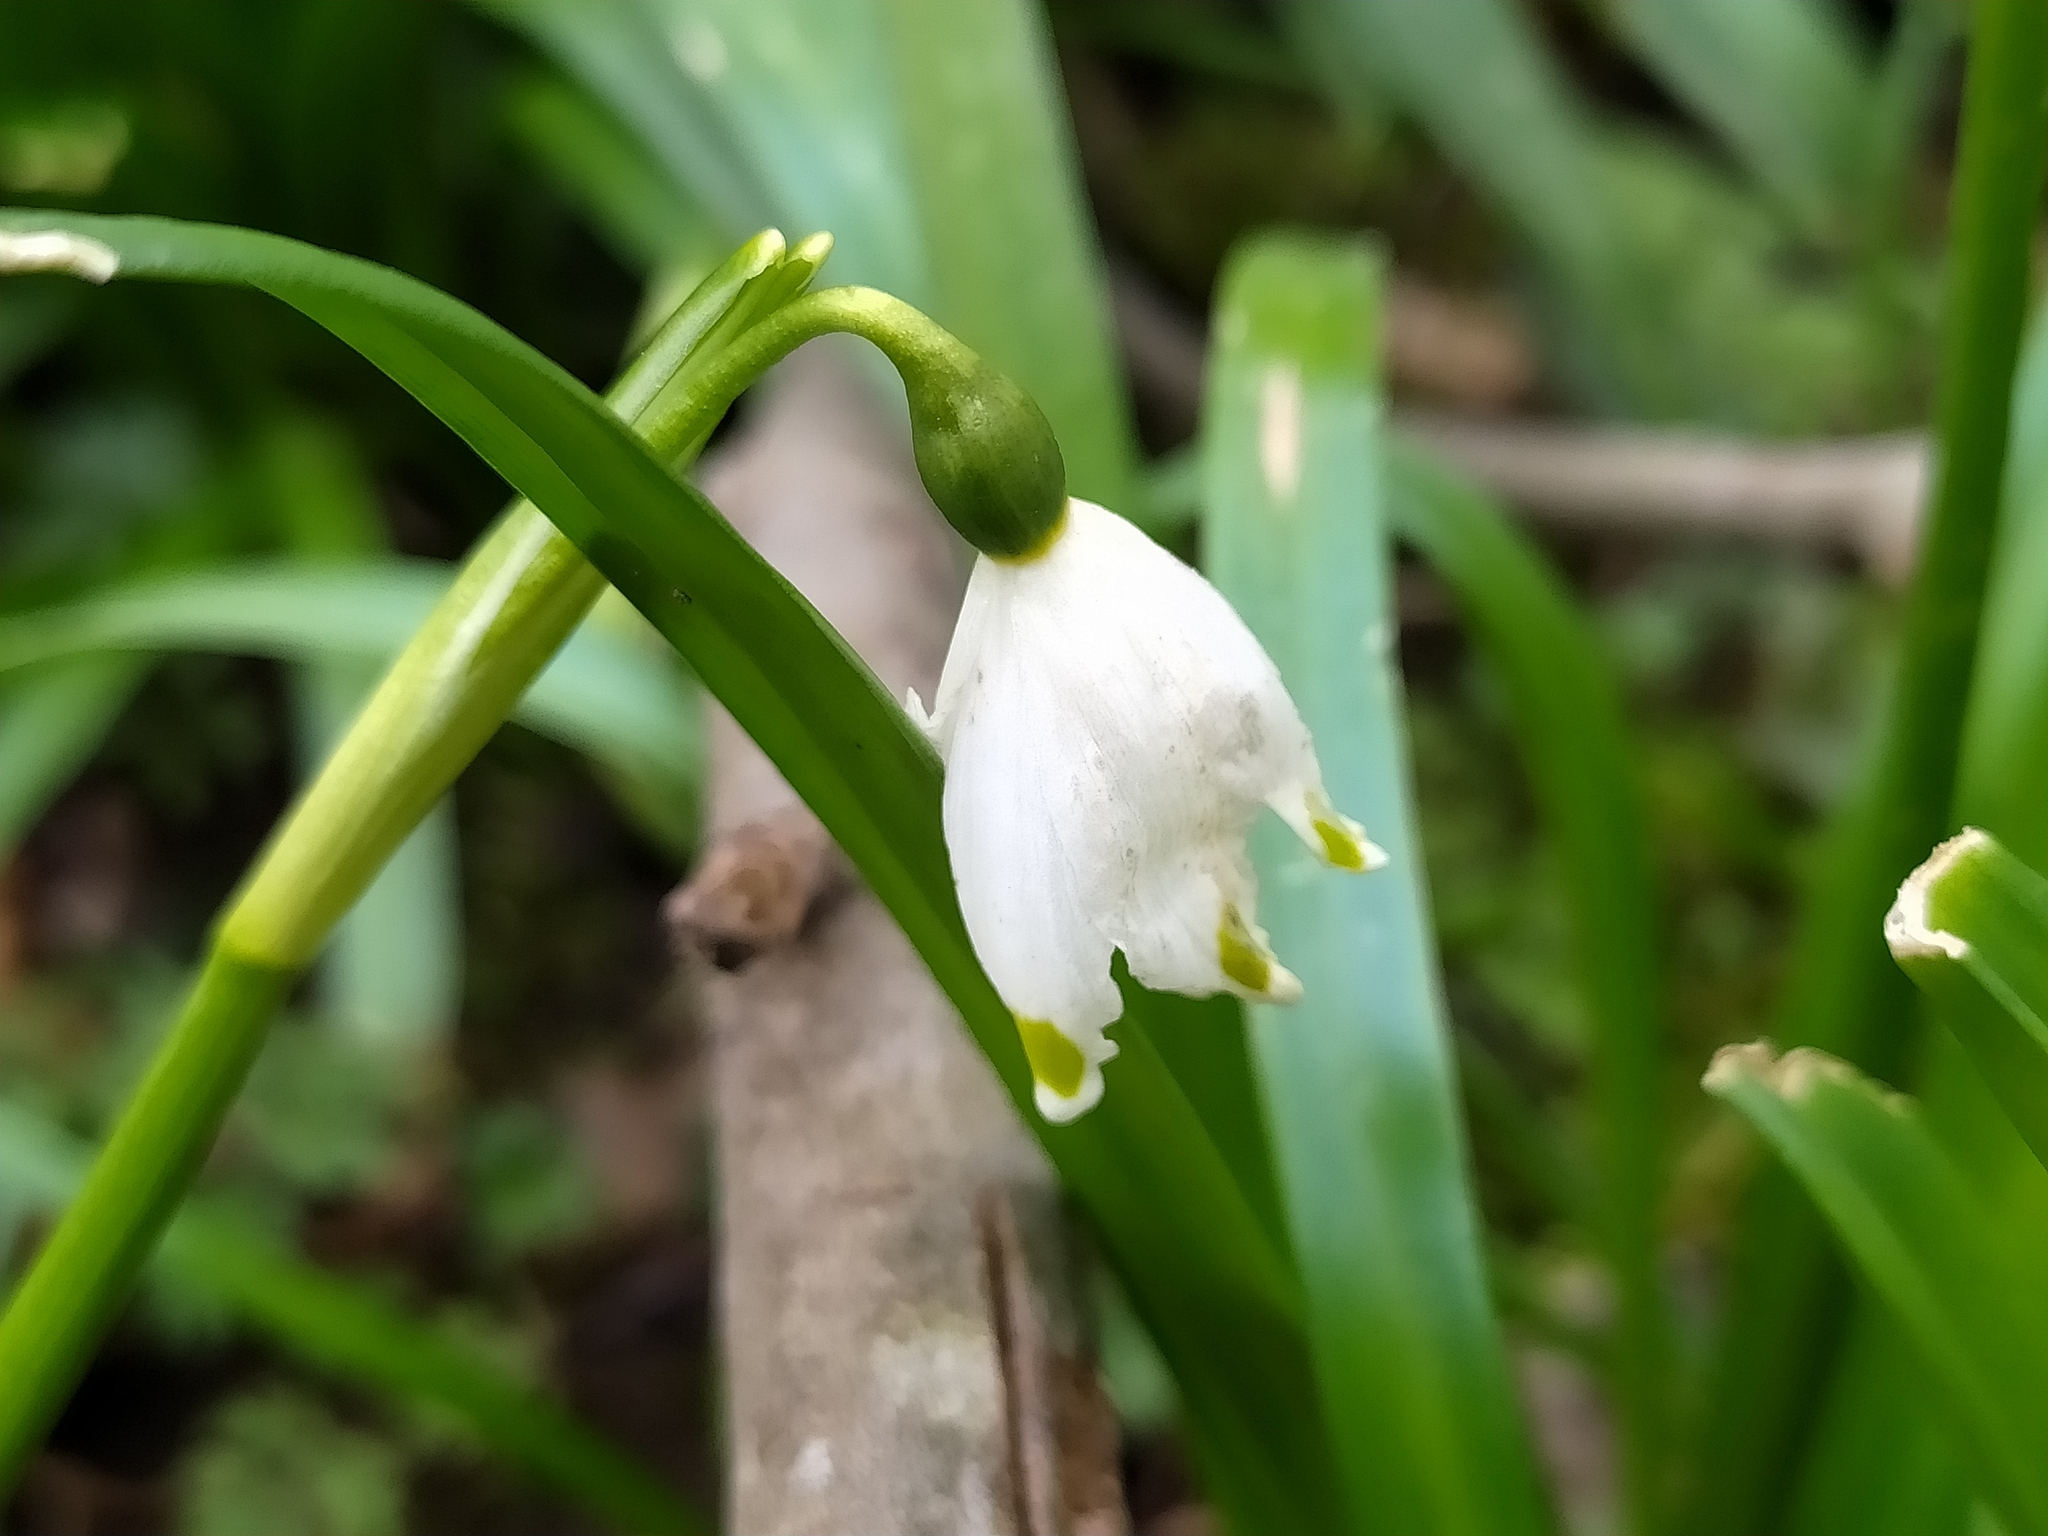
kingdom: Plantae
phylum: Tracheophyta
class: Liliopsida
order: Asparagales
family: Amaryllidaceae
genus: Leucojum
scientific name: Leucojum vernum
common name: Spring snowflake
